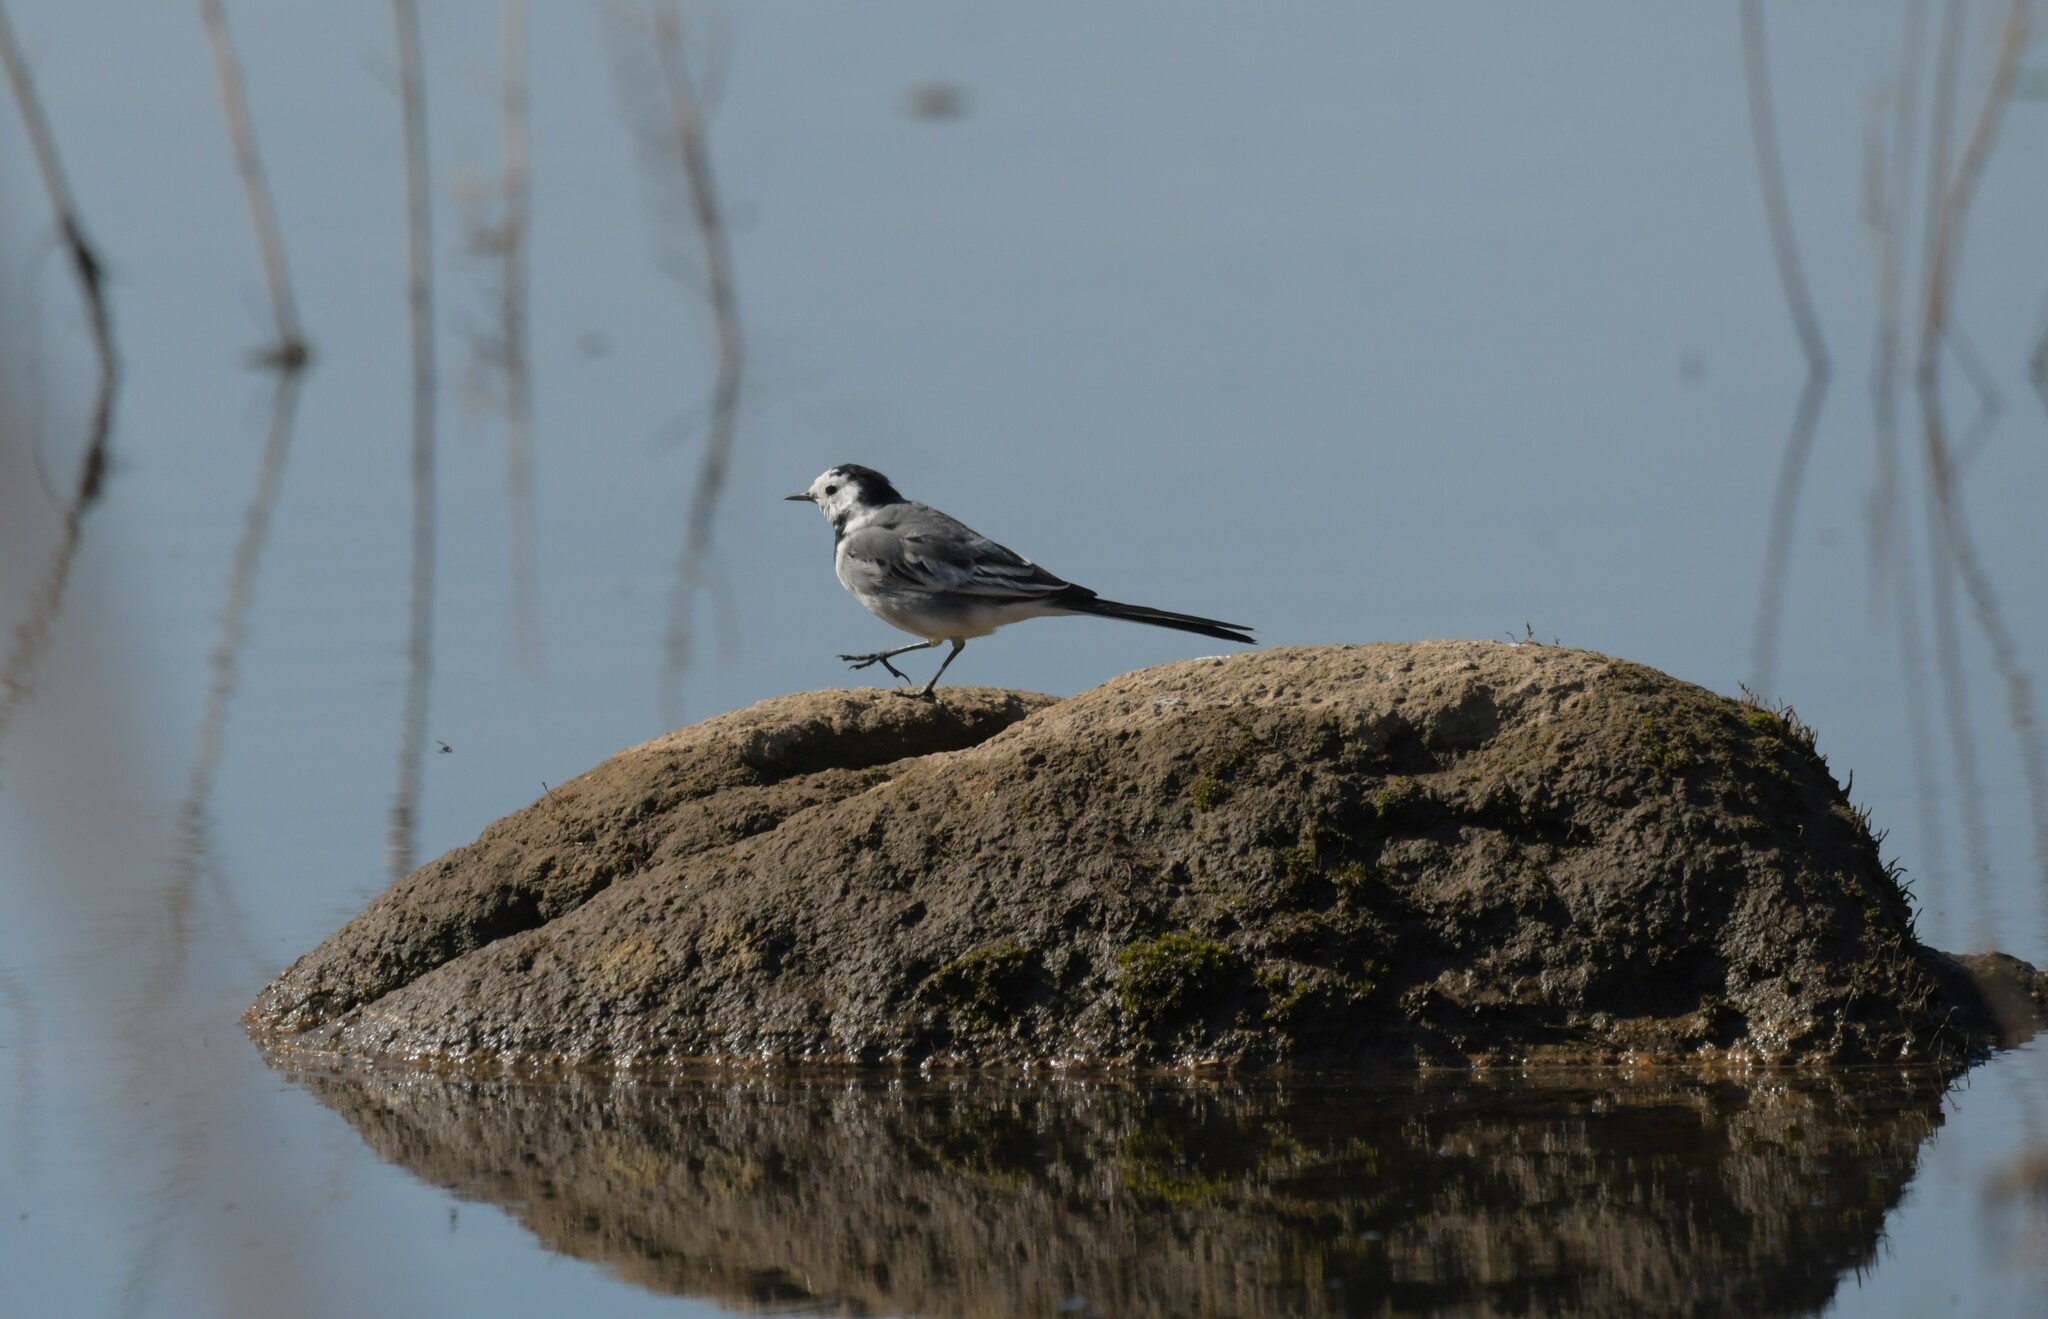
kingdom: Animalia
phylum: Chordata
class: Aves
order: Passeriformes
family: Motacillidae
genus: Motacilla
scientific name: Motacilla alba
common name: White wagtail
